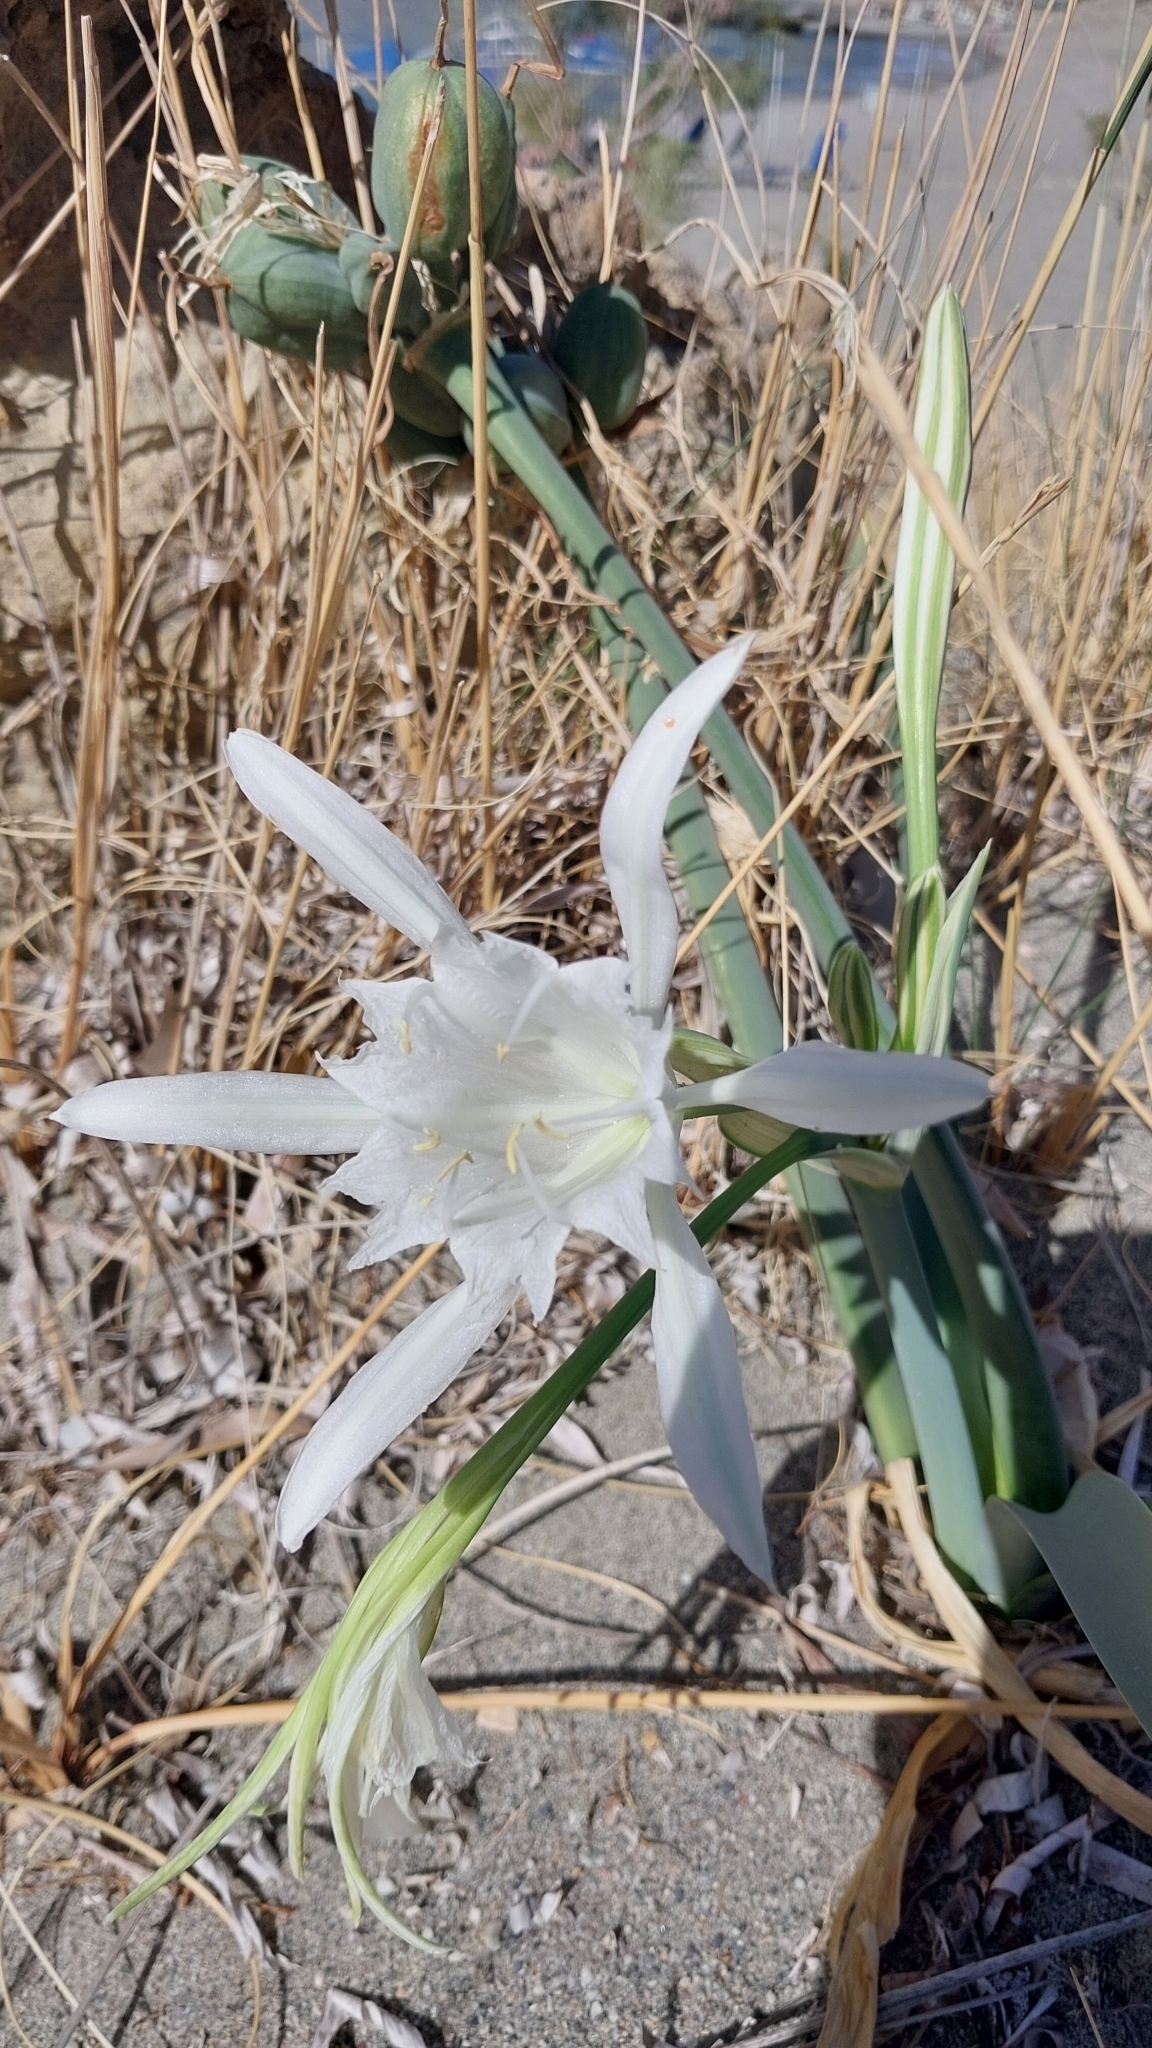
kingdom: Plantae
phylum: Tracheophyta
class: Liliopsida
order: Asparagales
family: Amaryllidaceae
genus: Pancratium
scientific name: Pancratium maritimum
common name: Sea-daffodil
